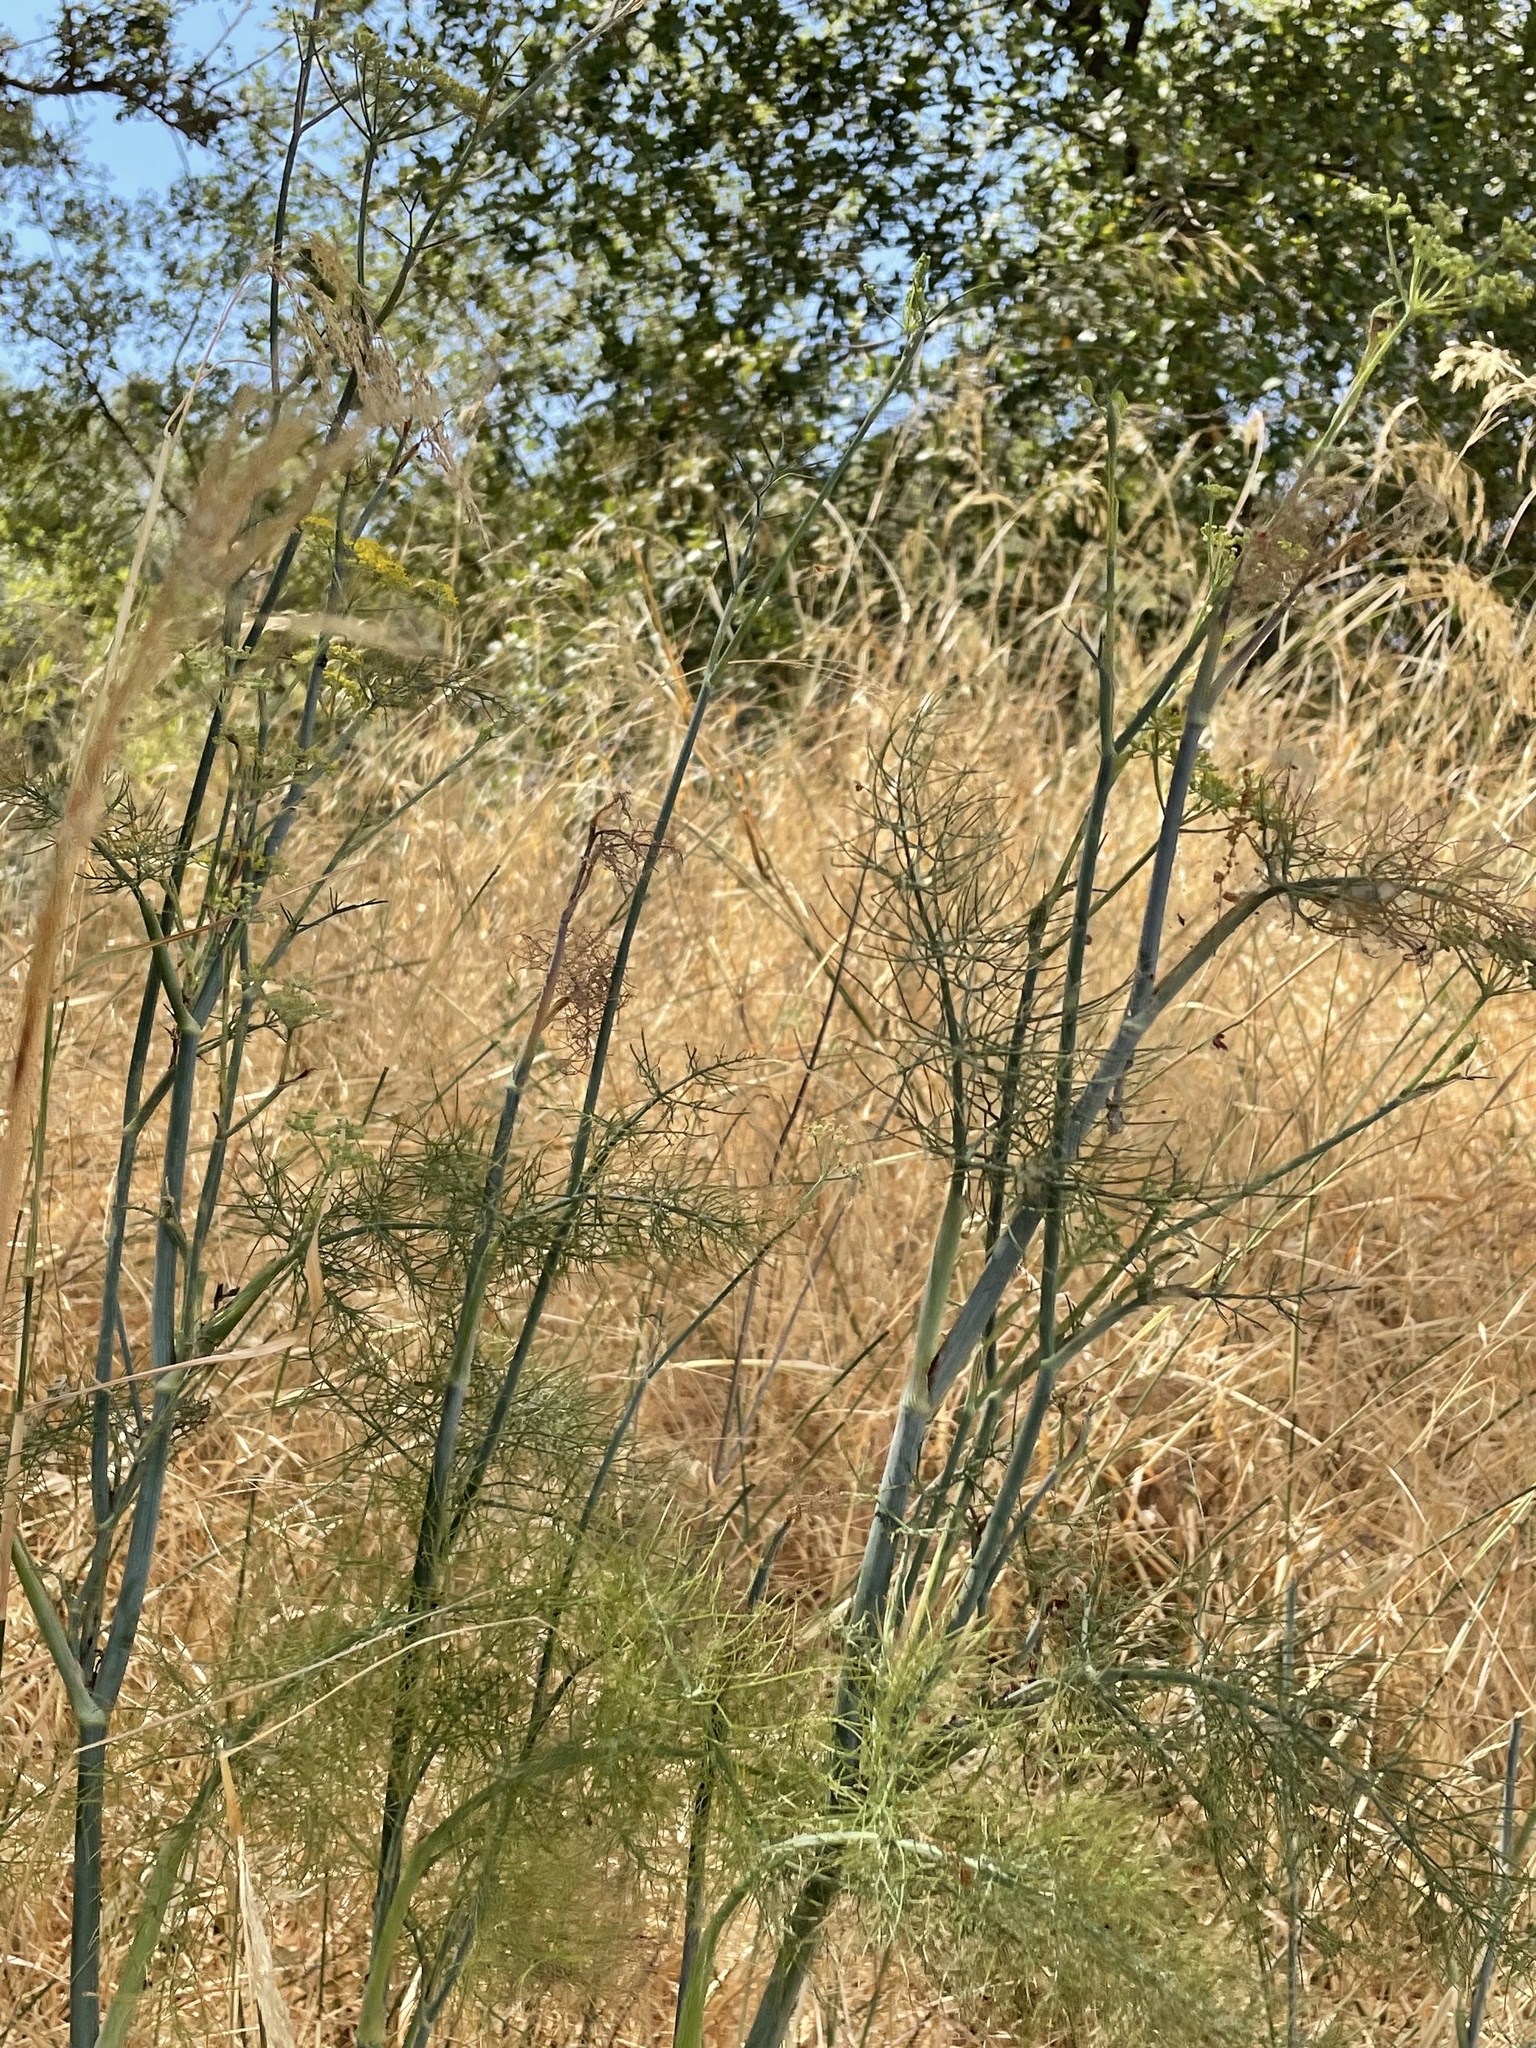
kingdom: Plantae
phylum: Tracheophyta
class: Magnoliopsida
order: Apiales
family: Apiaceae
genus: Foeniculum
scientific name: Foeniculum vulgare
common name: Fennel
